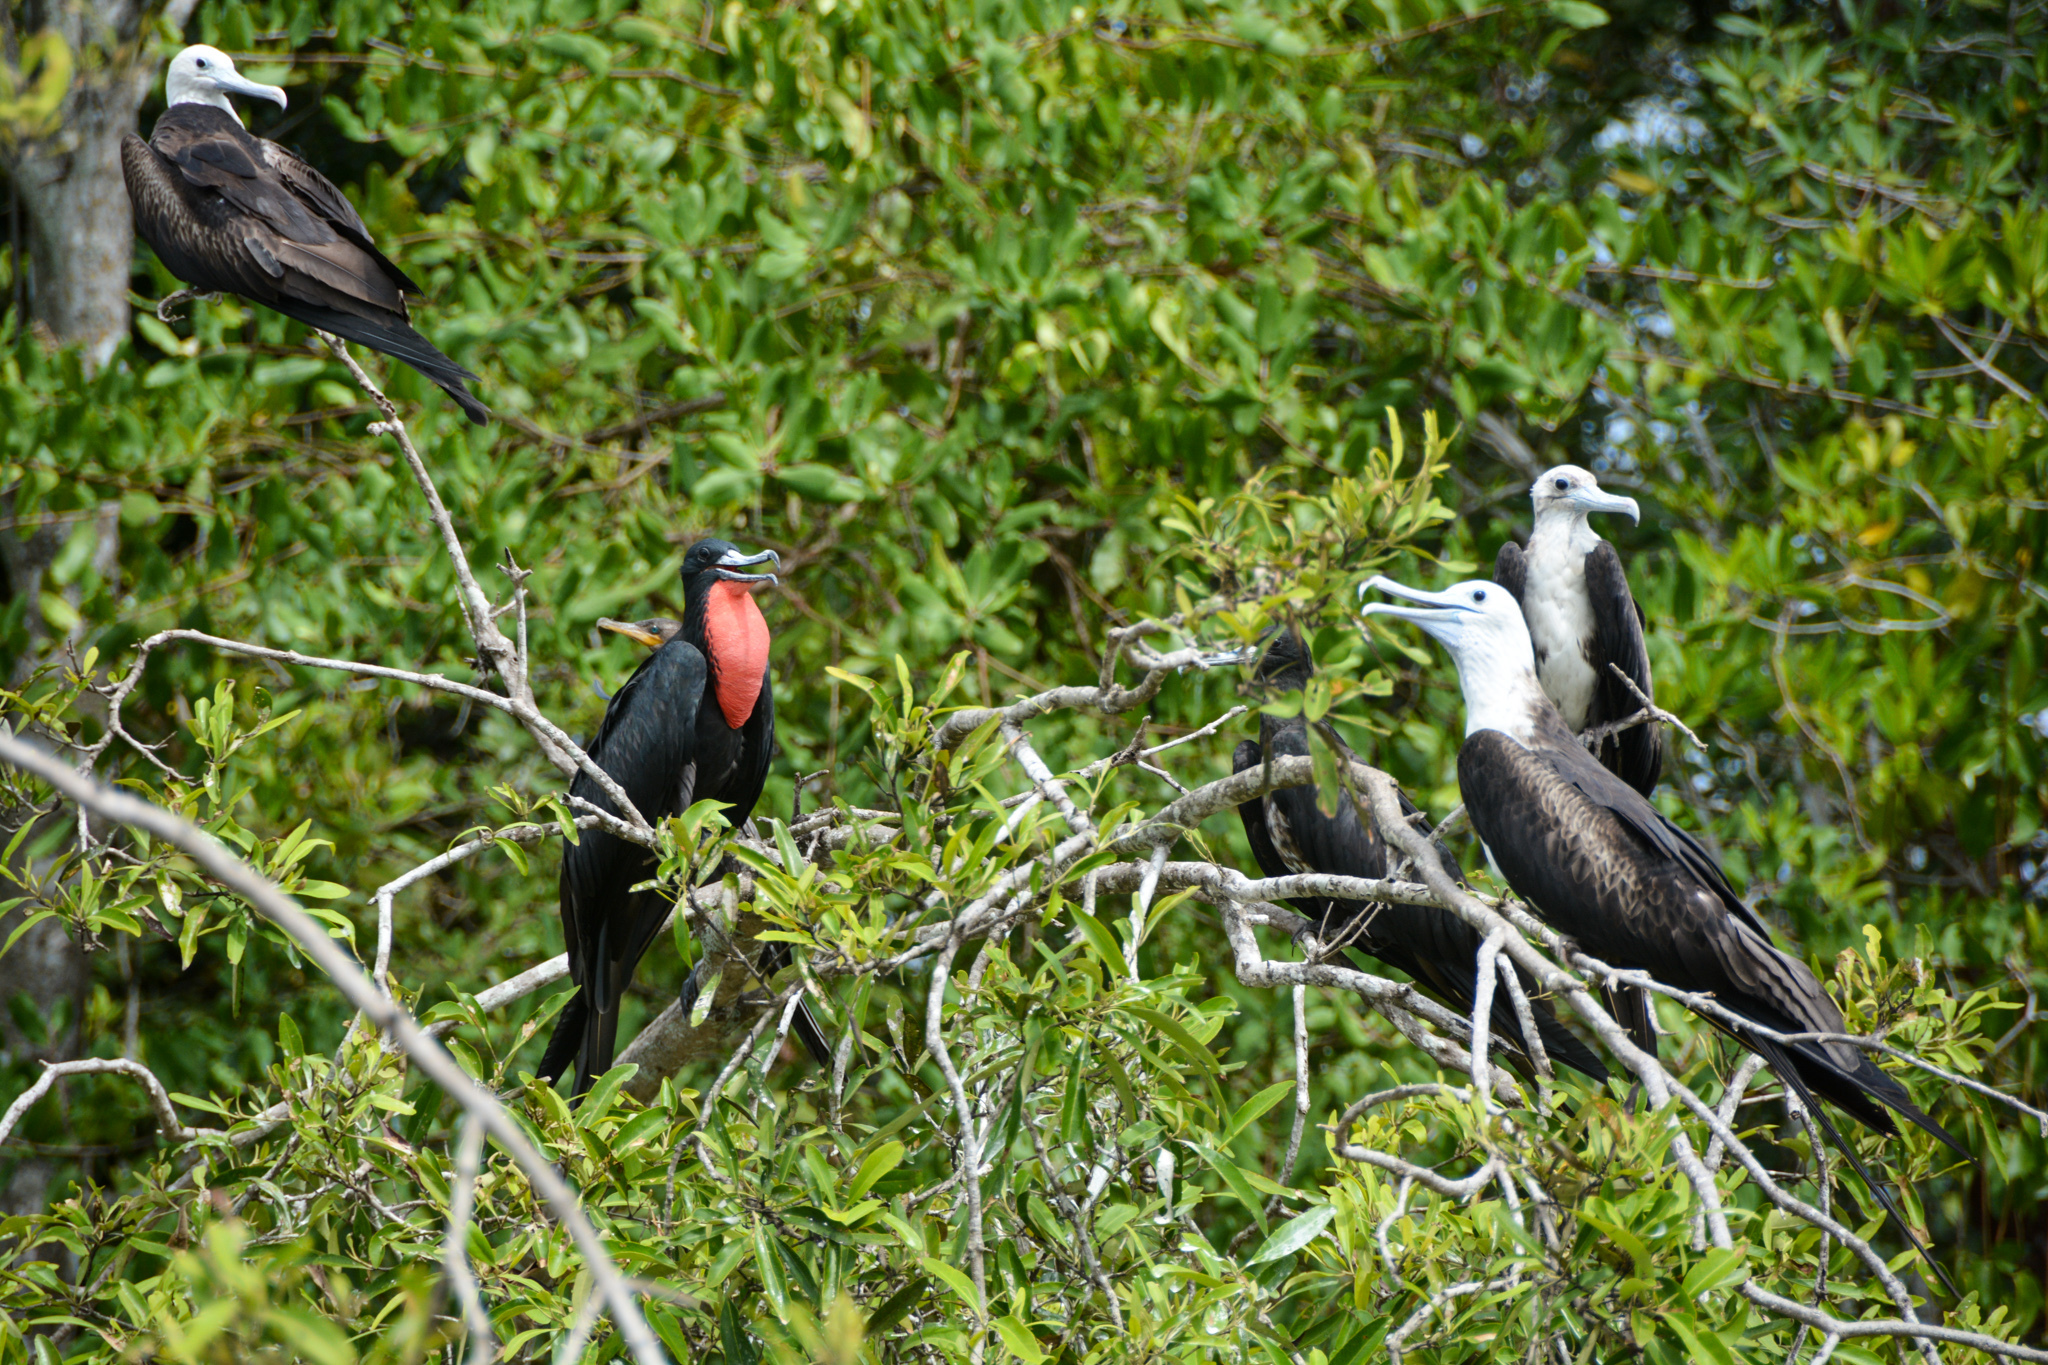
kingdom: Animalia
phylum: Chordata
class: Aves
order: Suliformes
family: Fregatidae
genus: Fregata
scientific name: Fregata magnificens
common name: Magnificent frigatebird
